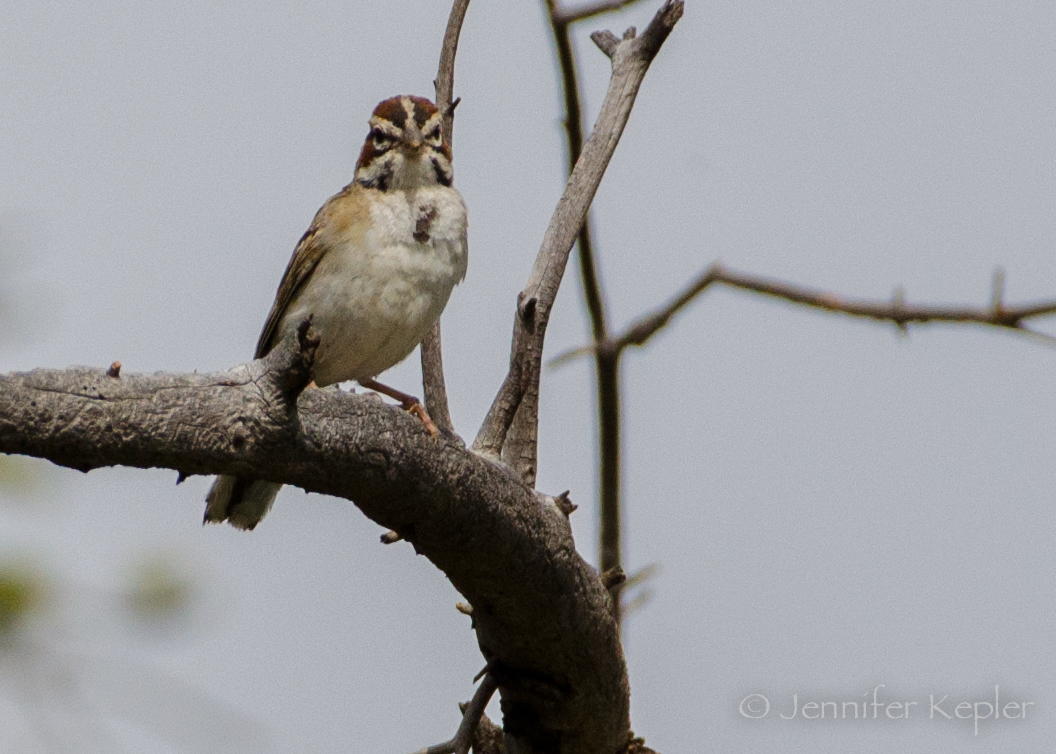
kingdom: Animalia
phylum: Chordata
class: Aves
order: Passeriformes
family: Passerellidae
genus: Chondestes
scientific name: Chondestes grammacus
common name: Lark sparrow
